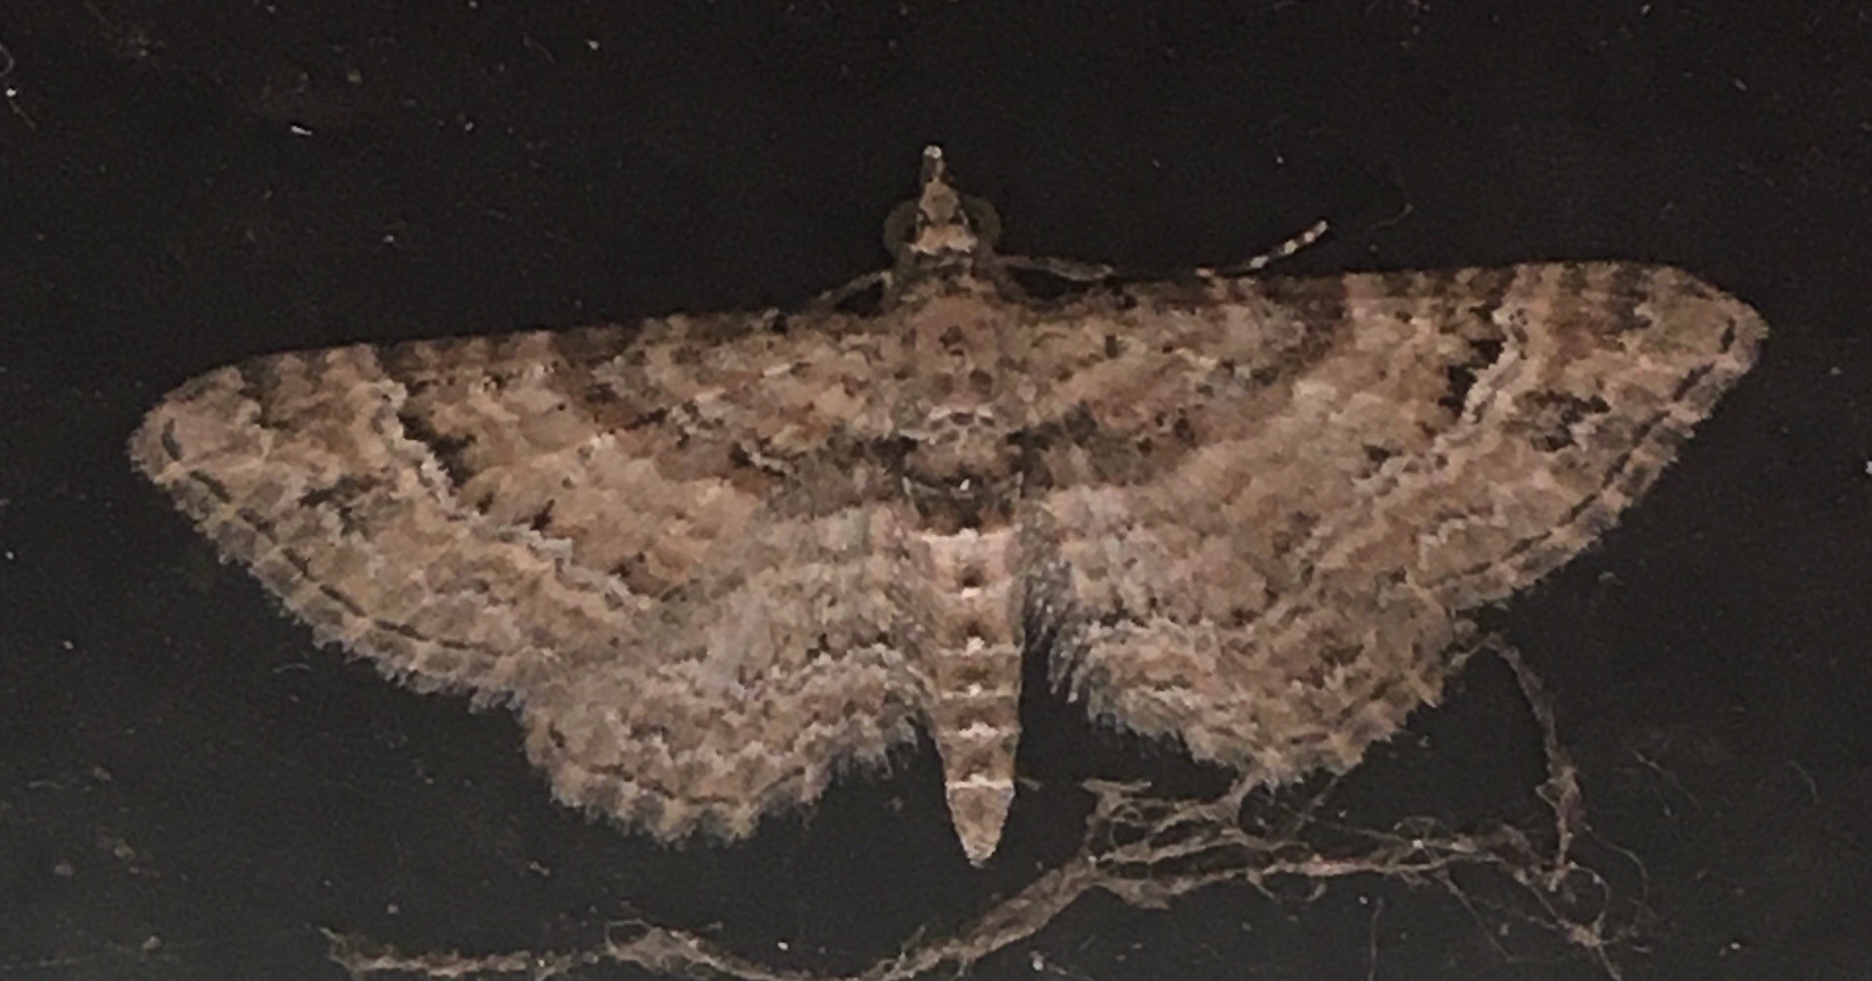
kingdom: Animalia
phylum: Arthropoda
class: Insecta
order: Lepidoptera
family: Geometridae
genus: Gymnoscelis
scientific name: Gymnoscelis rufifasciata
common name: Double-striped pug
